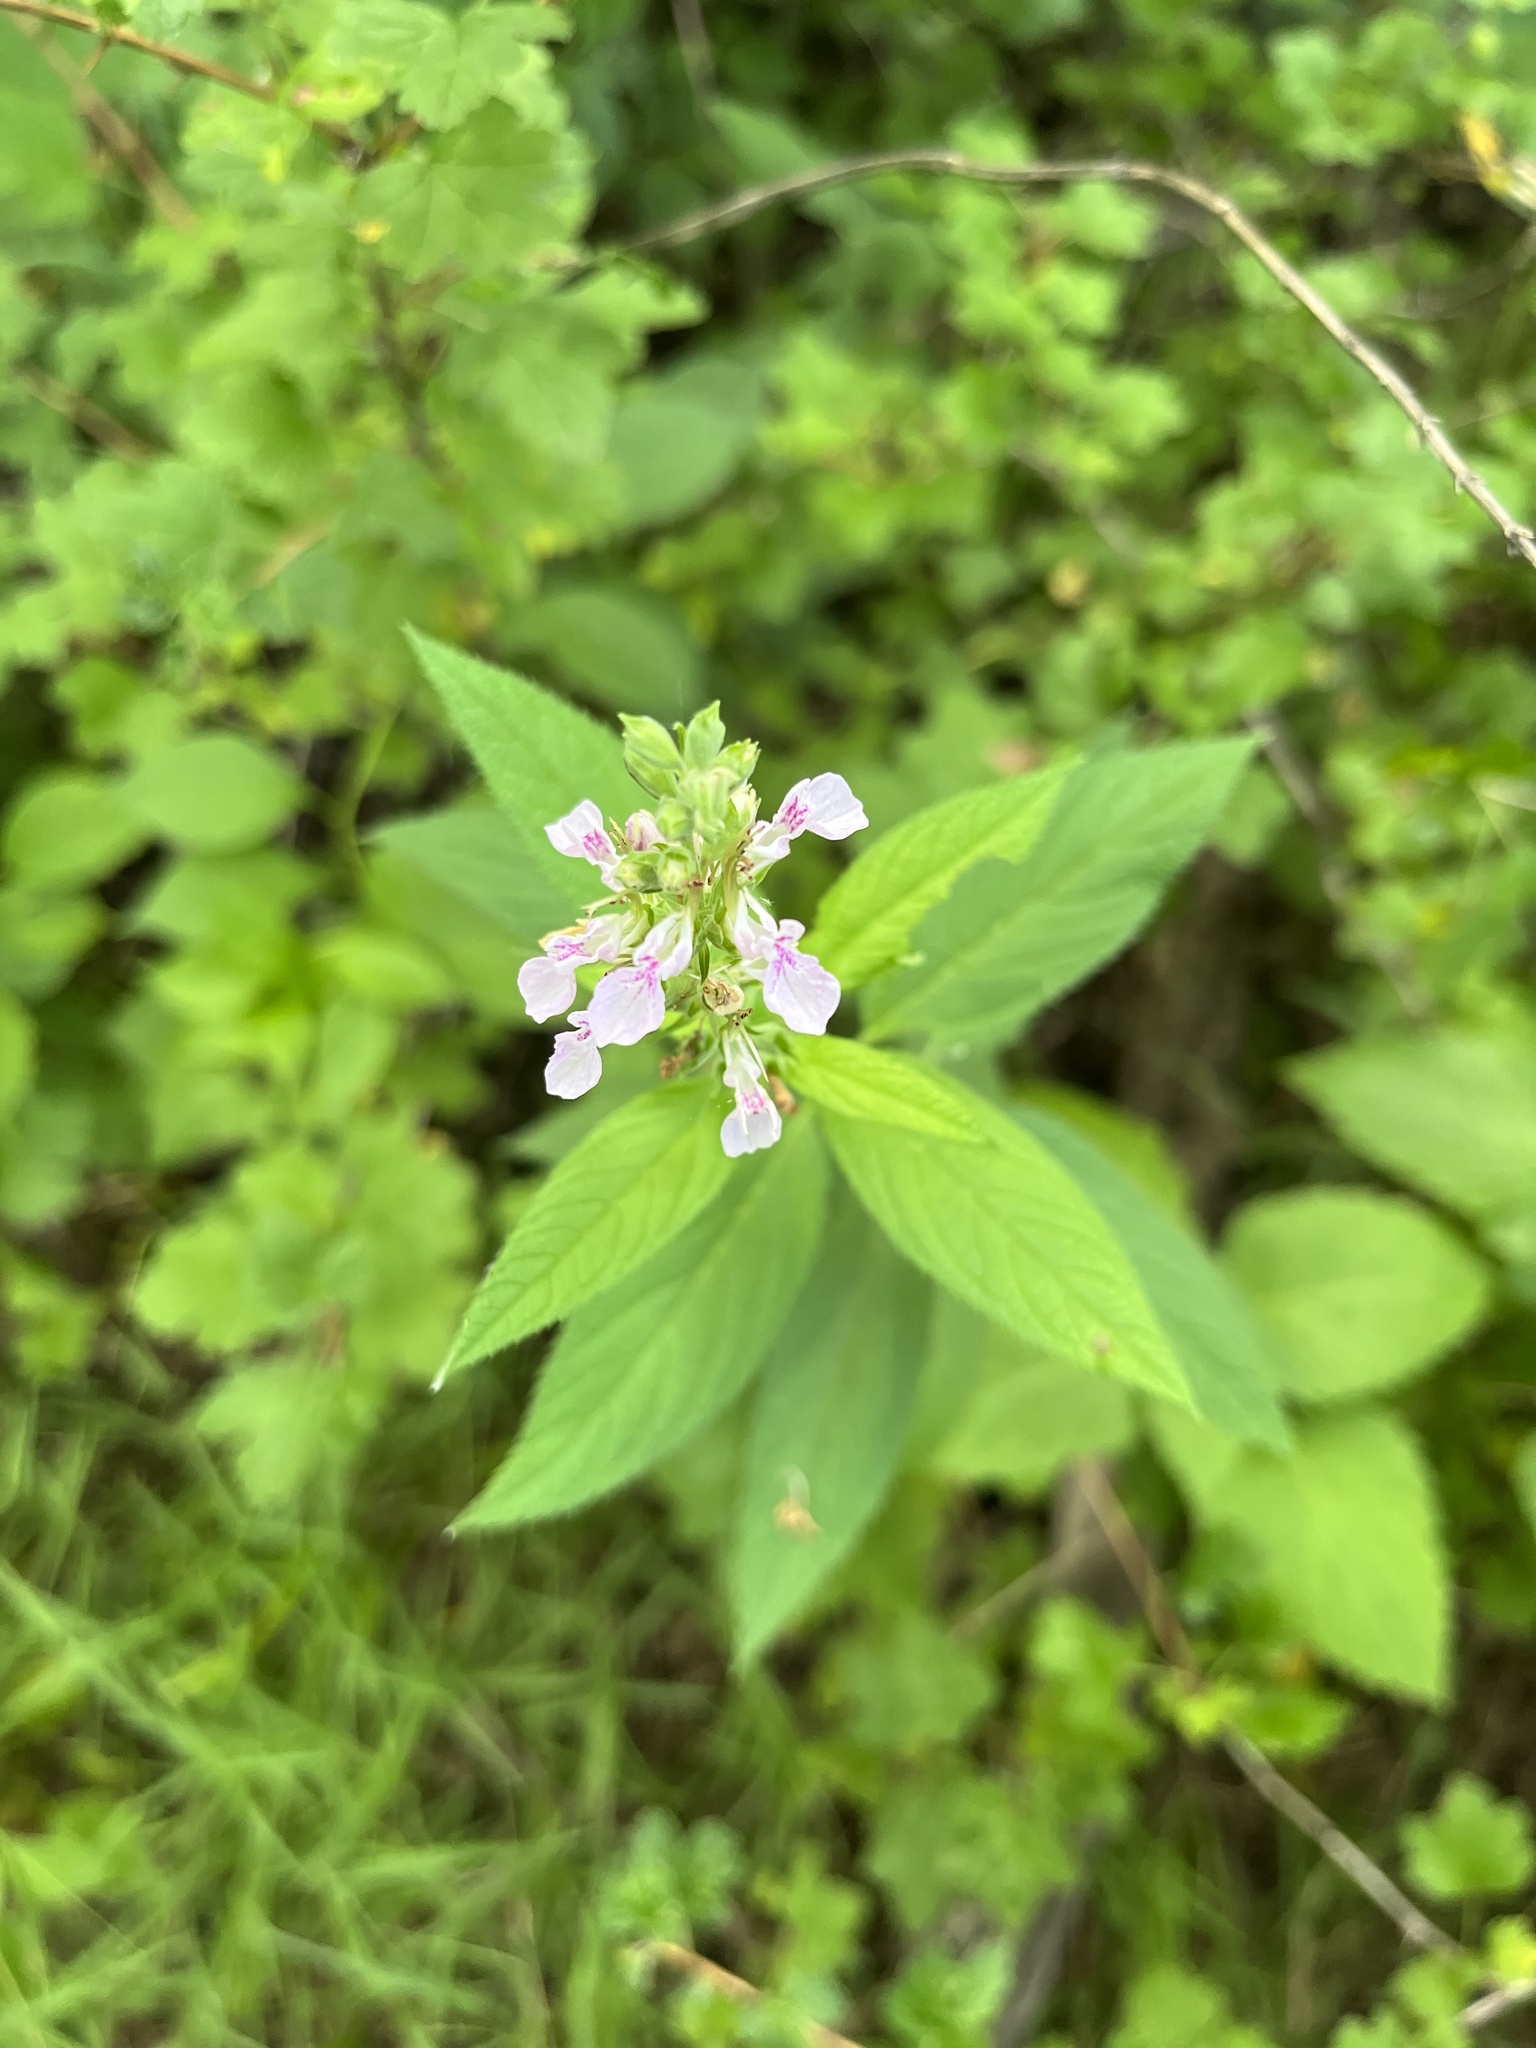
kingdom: Plantae
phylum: Tracheophyta
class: Magnoliopsida
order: Lamiales
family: Lamiaceae
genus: Teucrium
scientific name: Teucrium canadense
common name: American germander
